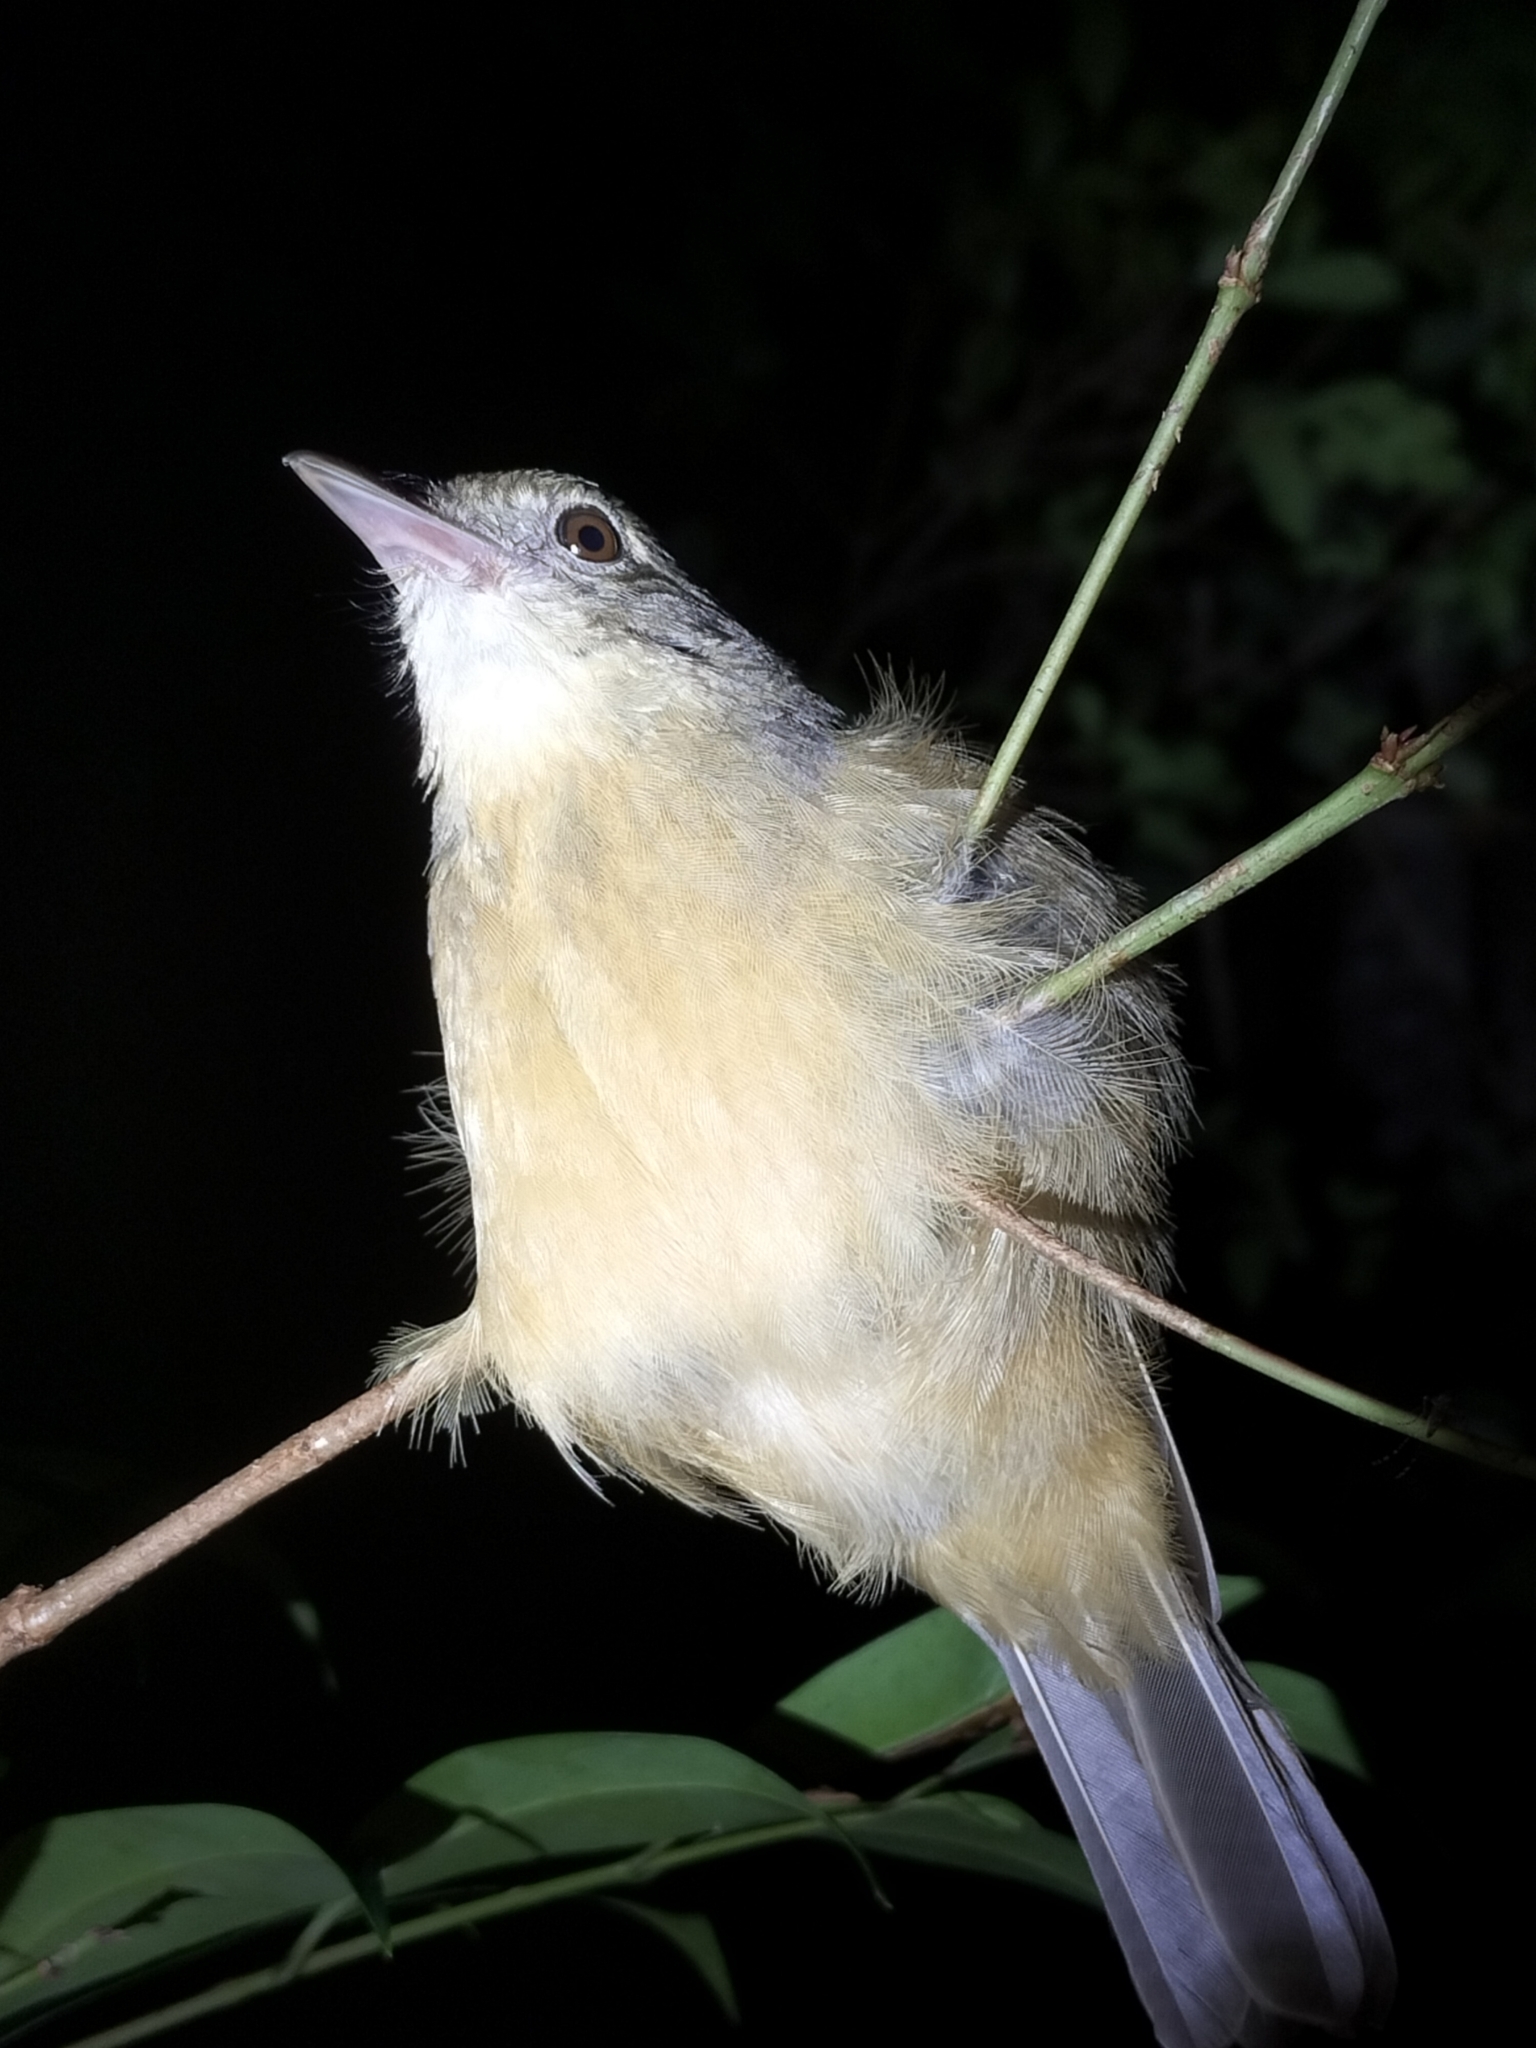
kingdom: Animalia
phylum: Chordata
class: Aves
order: Passeriformes
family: Pachycephalidae
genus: Colluricincla
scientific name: Colluricincla rufogaster
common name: Rufous shrikethrush
